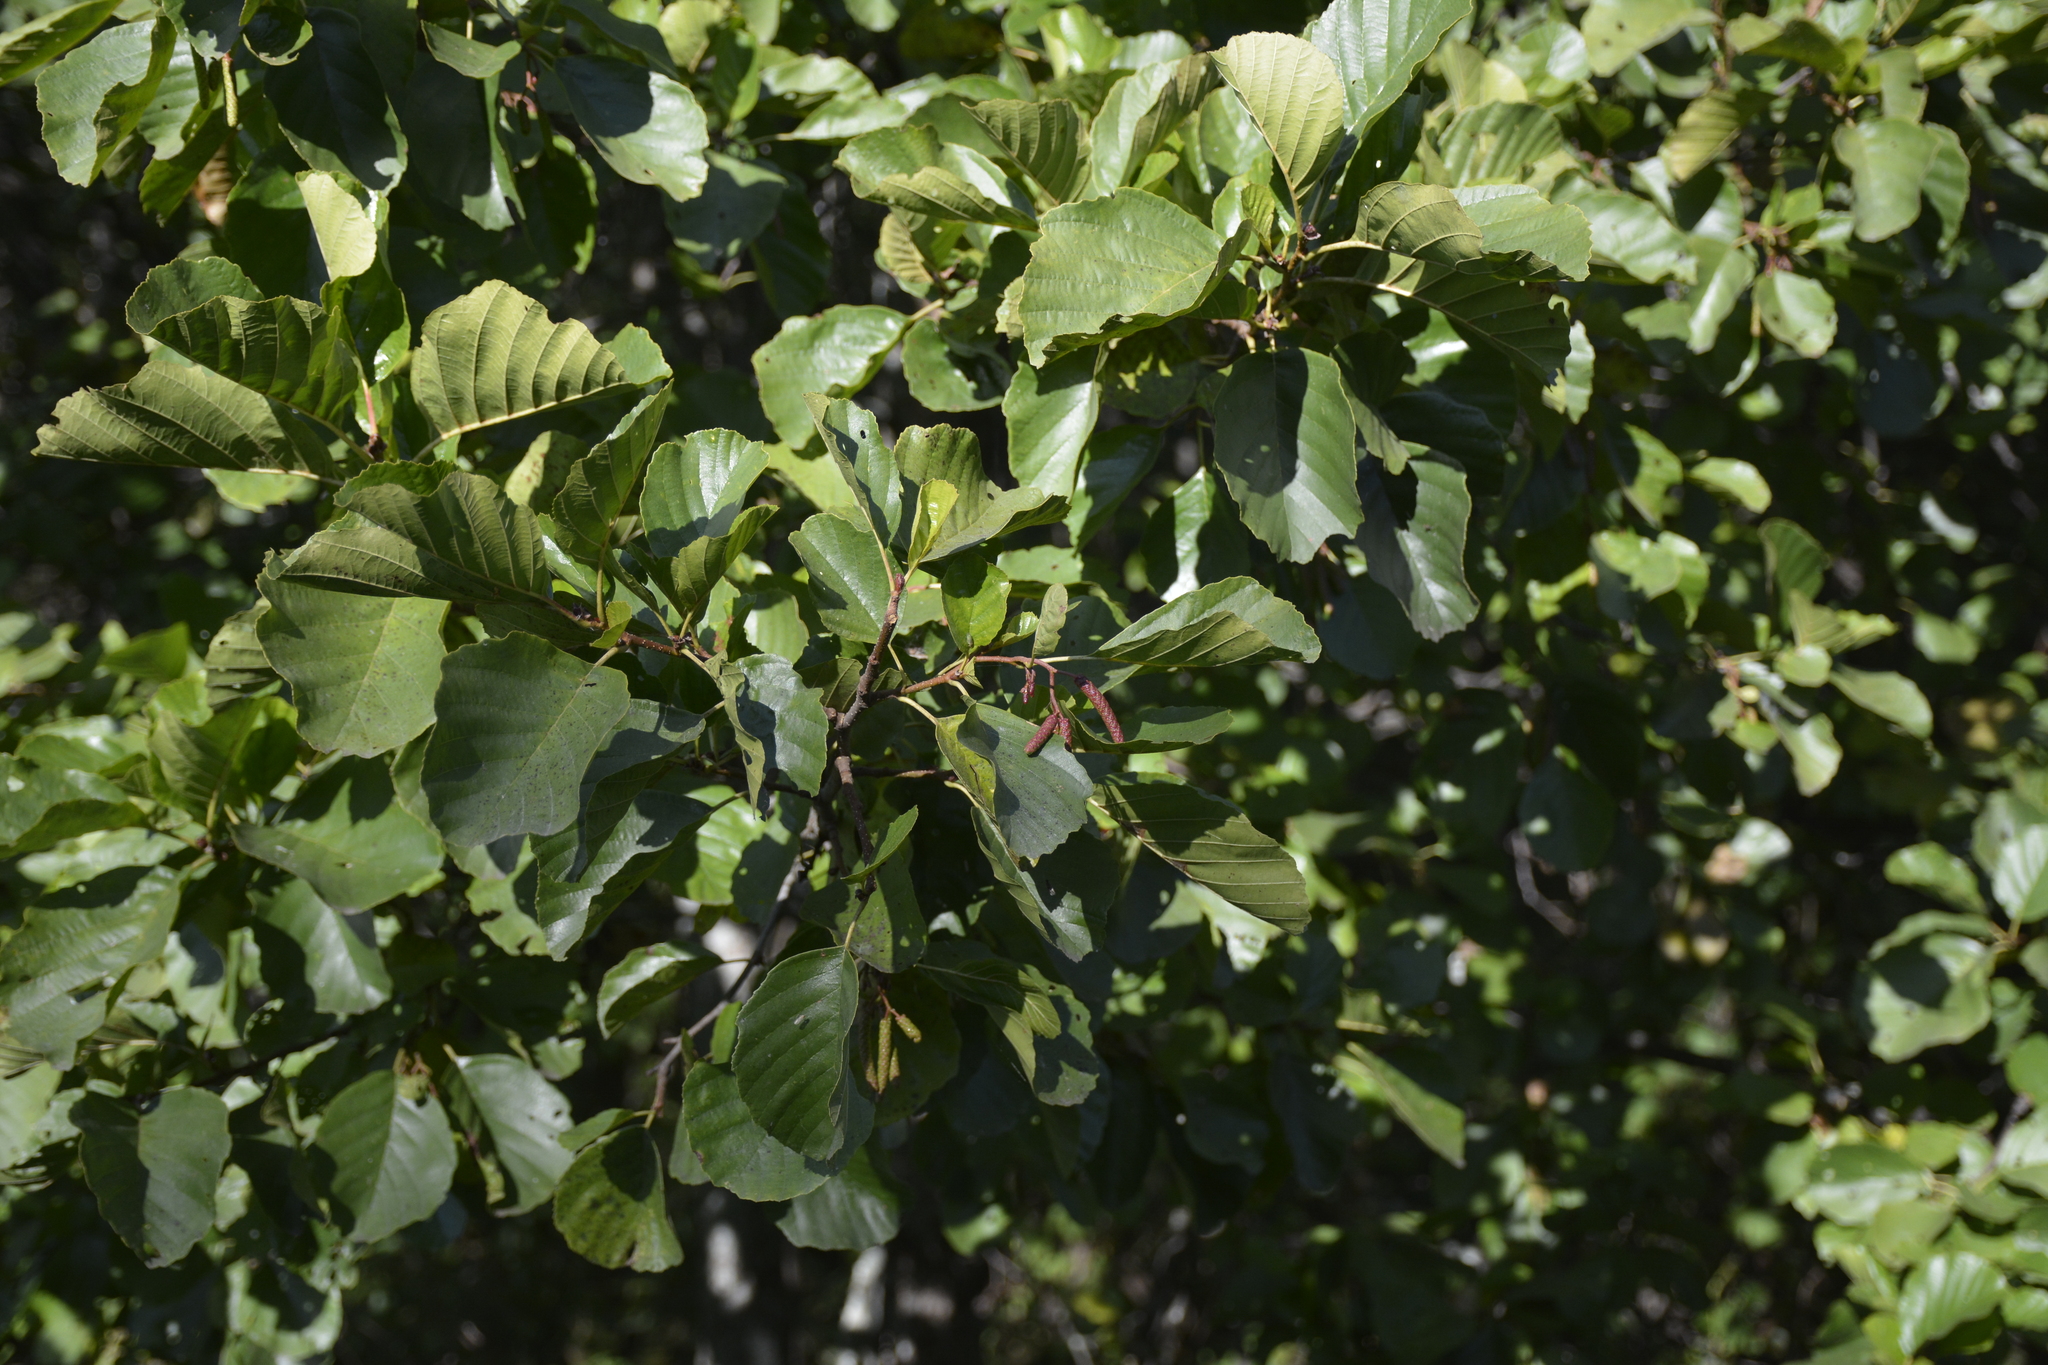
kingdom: Plantae
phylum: Tracheophyta
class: Magnoliopsida
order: Fagales
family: Betulaceae
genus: Alnus
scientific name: Alnus glutinosa
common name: Black alder
